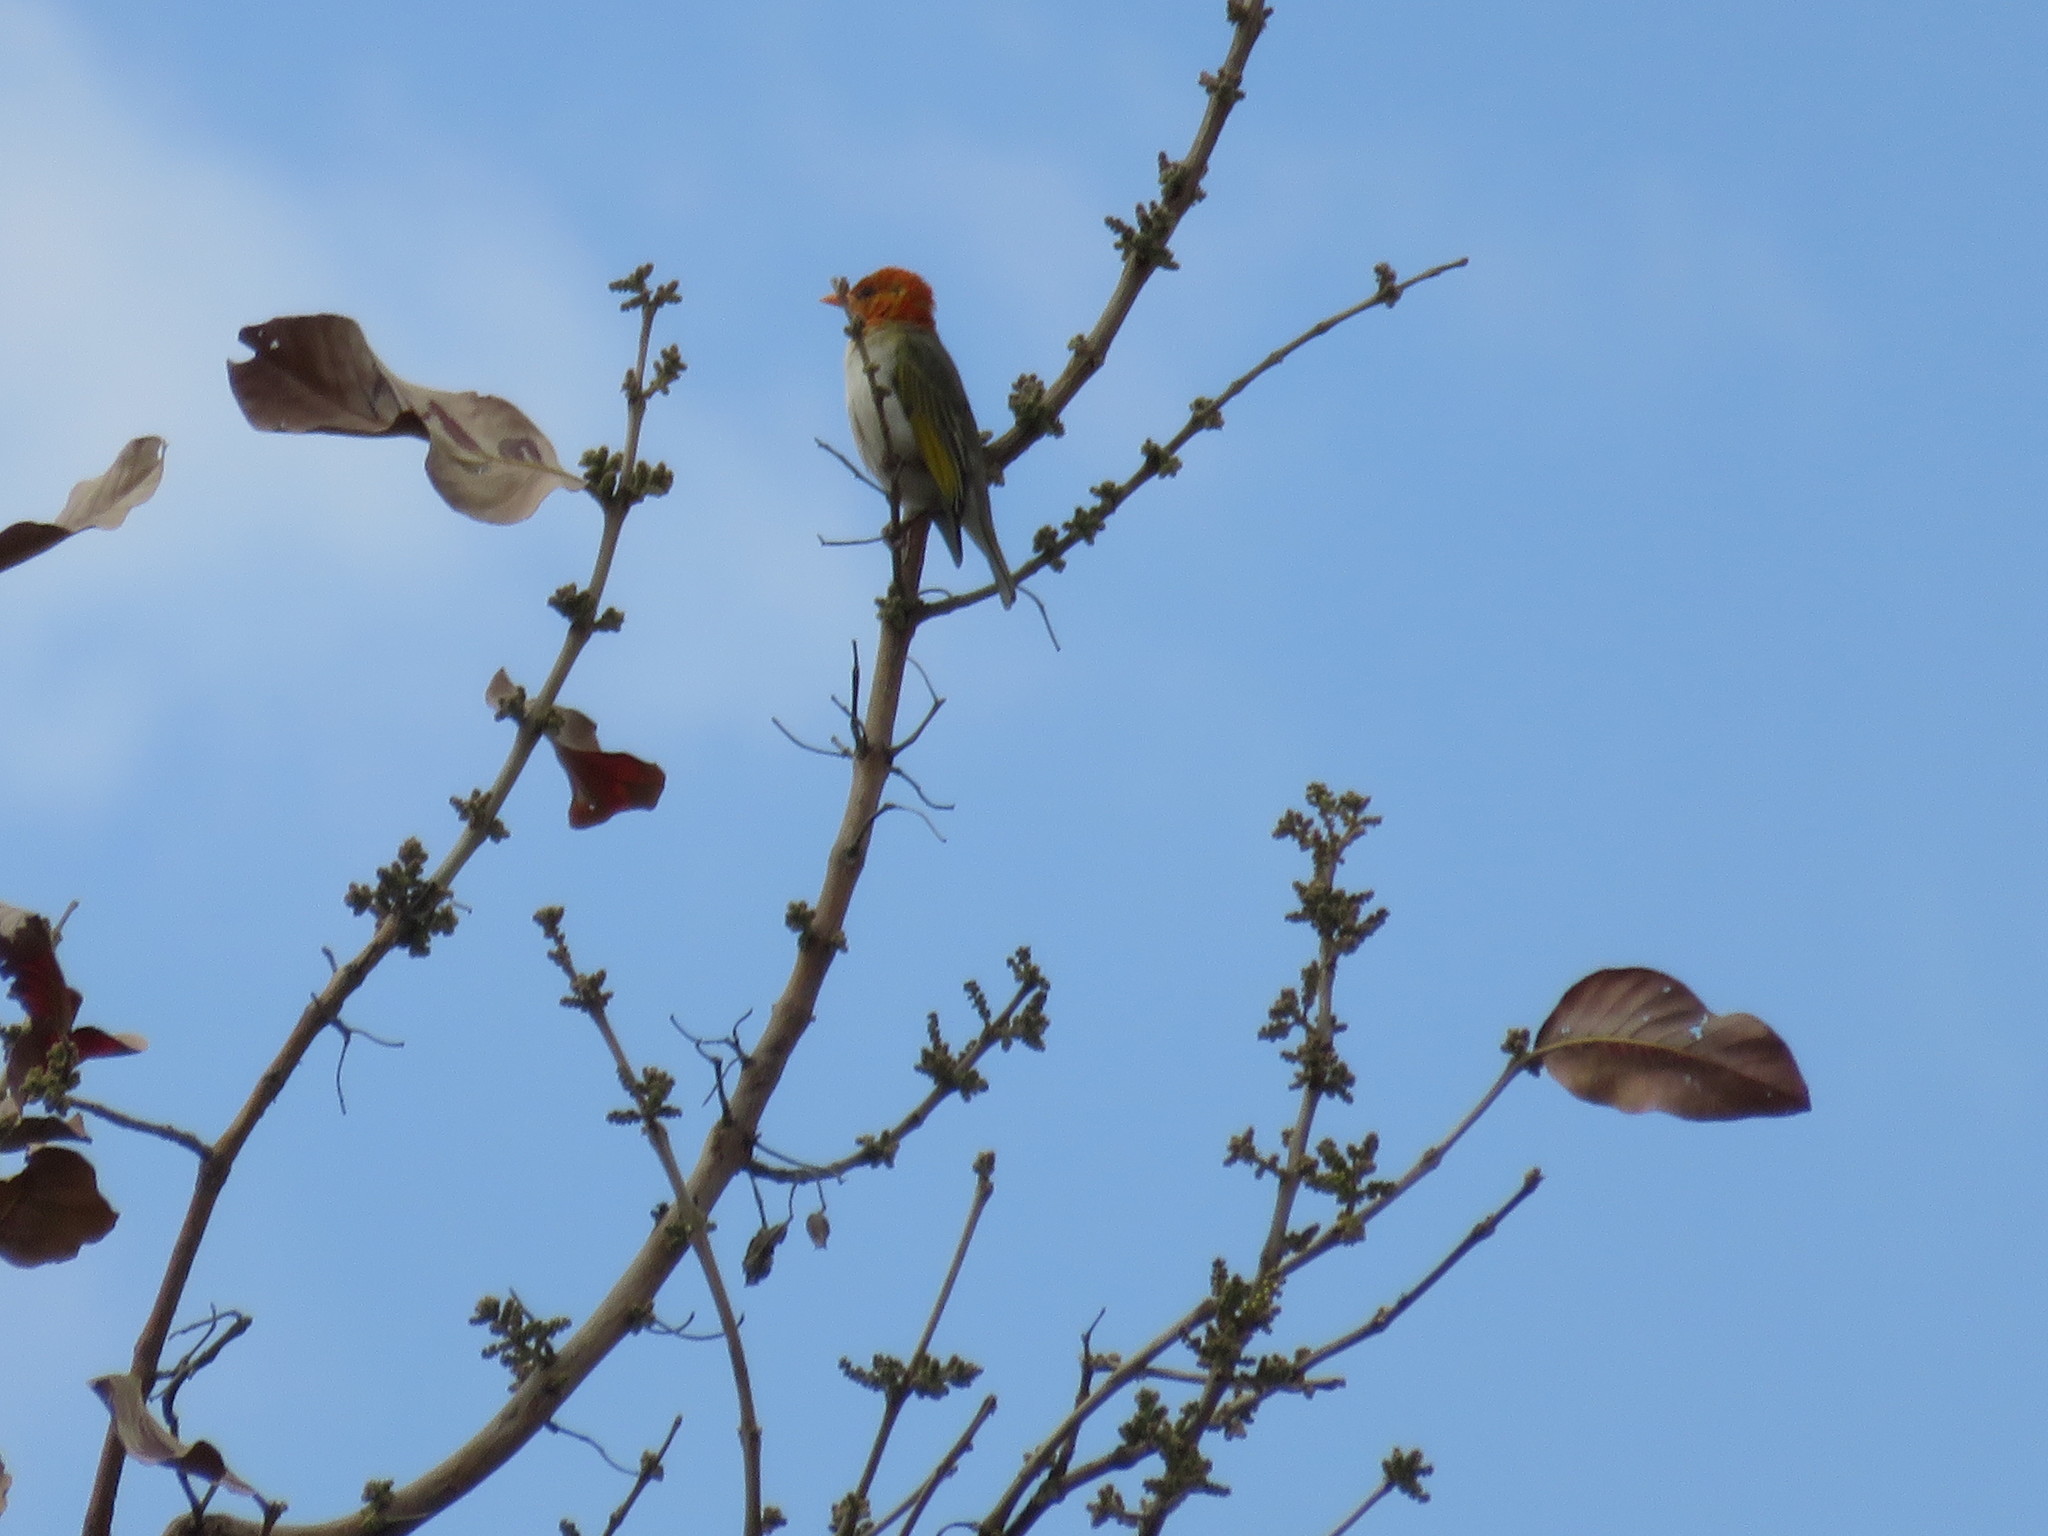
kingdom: Animalia
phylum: Chordata
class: Aves
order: Passeriformes
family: Ploceidae
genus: Anaplectes
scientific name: Anaplectes rubriceps
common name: Red-headed weaver
